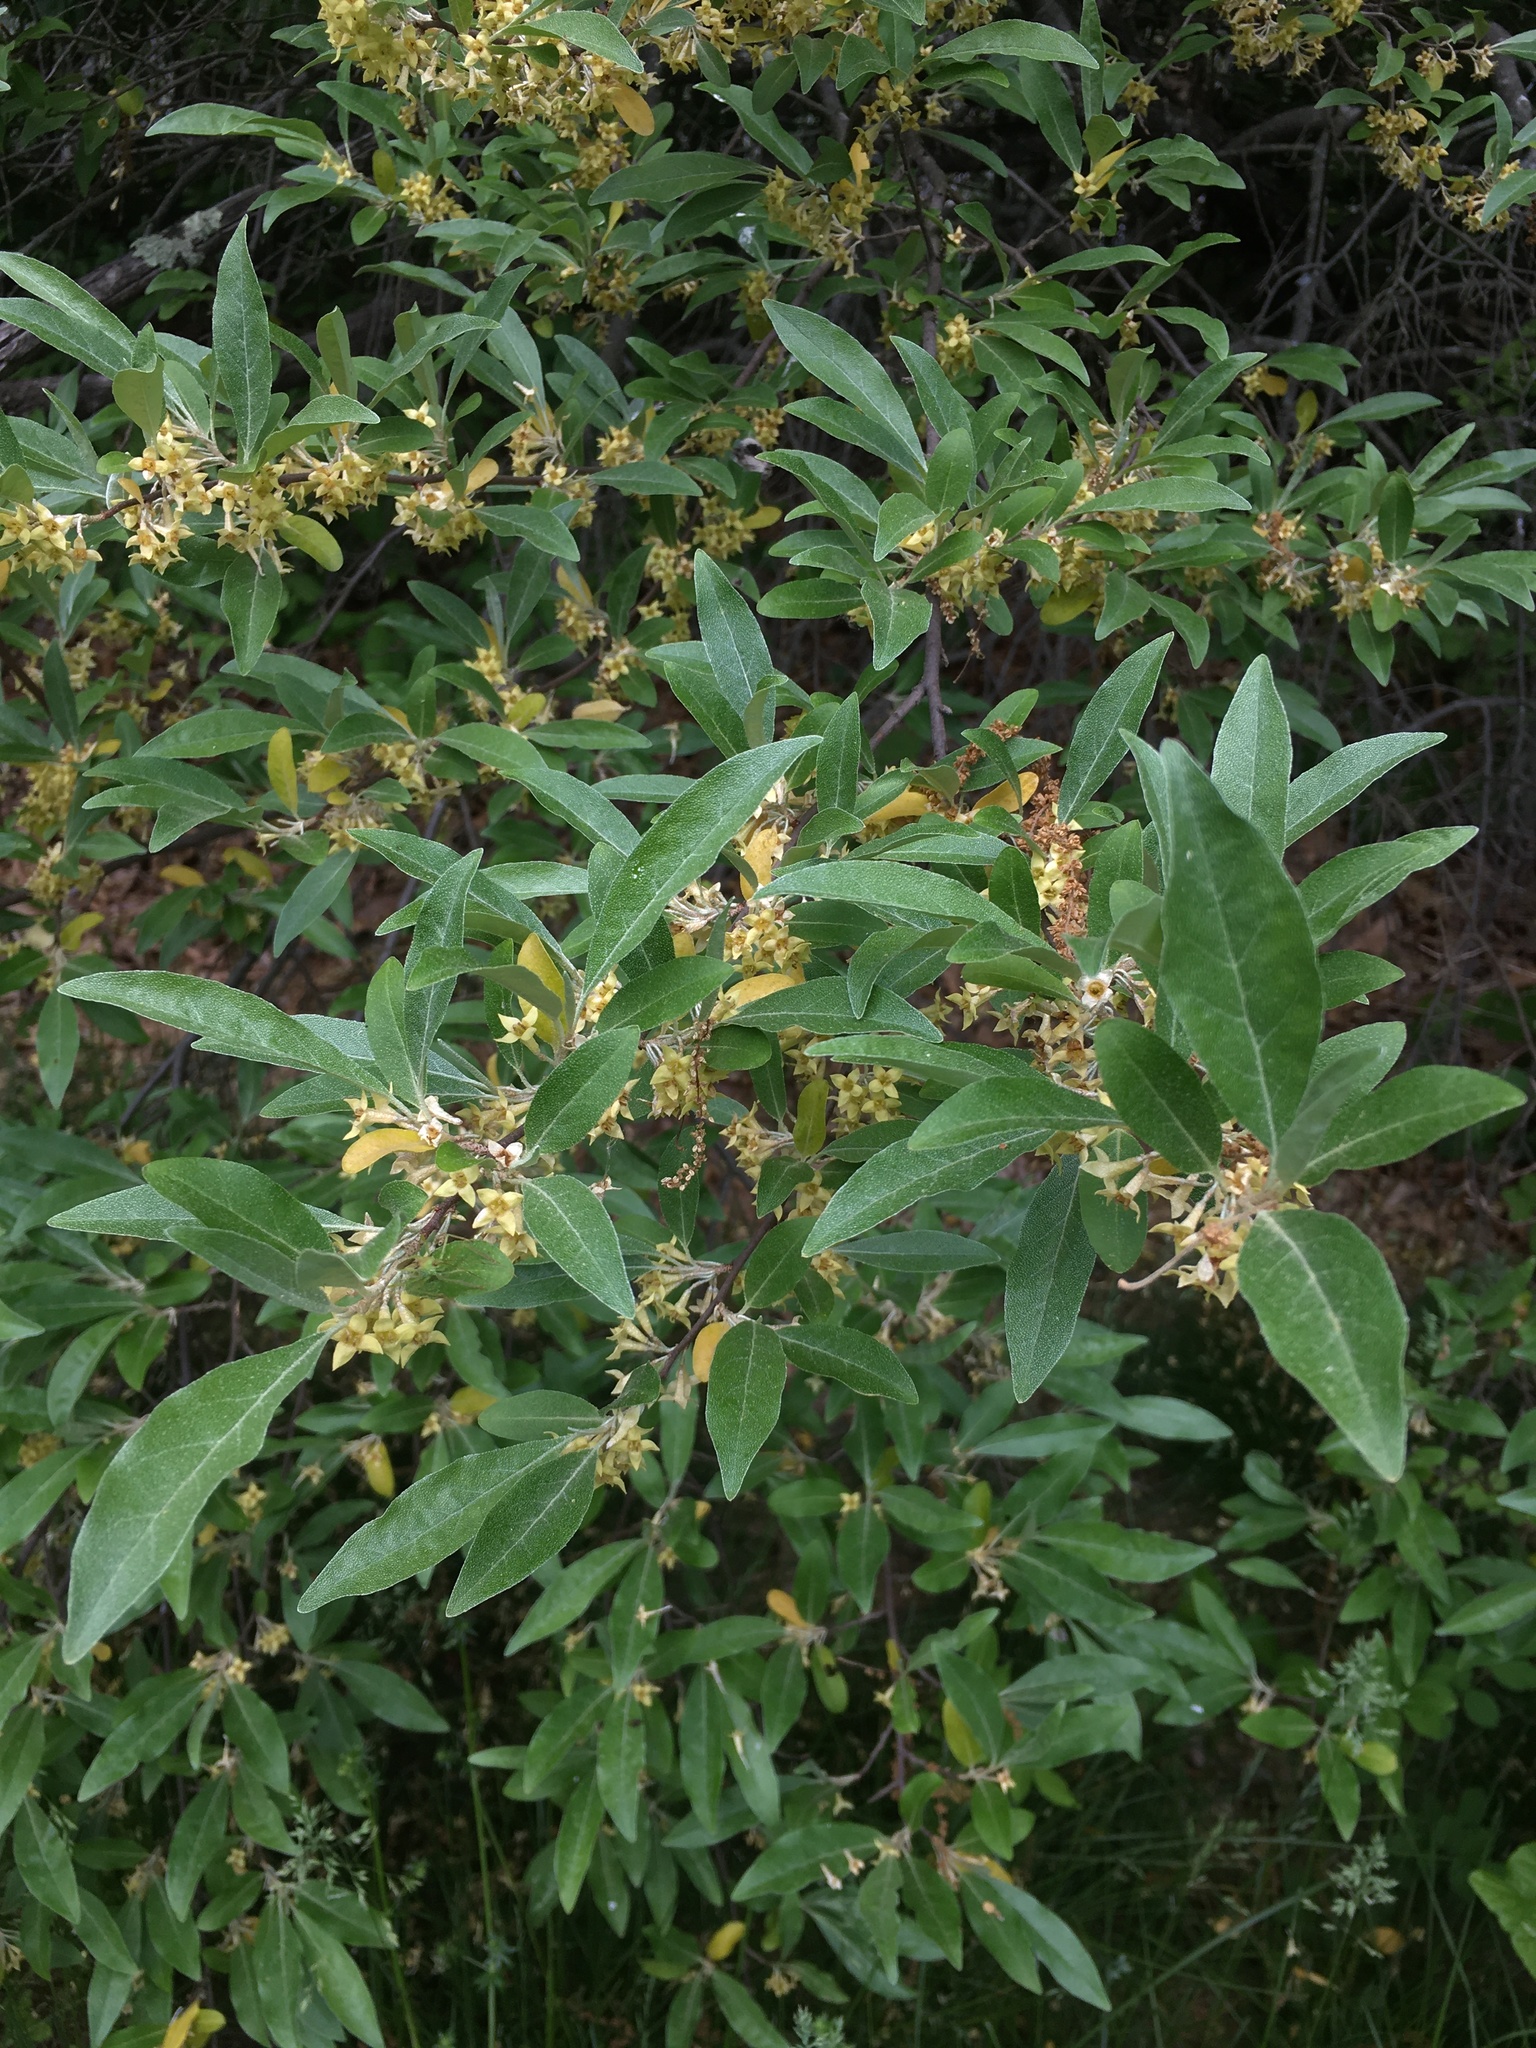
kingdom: Plantae
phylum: Tracheophyta
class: Magnoliopsida
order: Rosales
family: Elaeagnaceae
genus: Elaeagnus
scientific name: Elaeagnus umbellata
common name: Autumn olive
